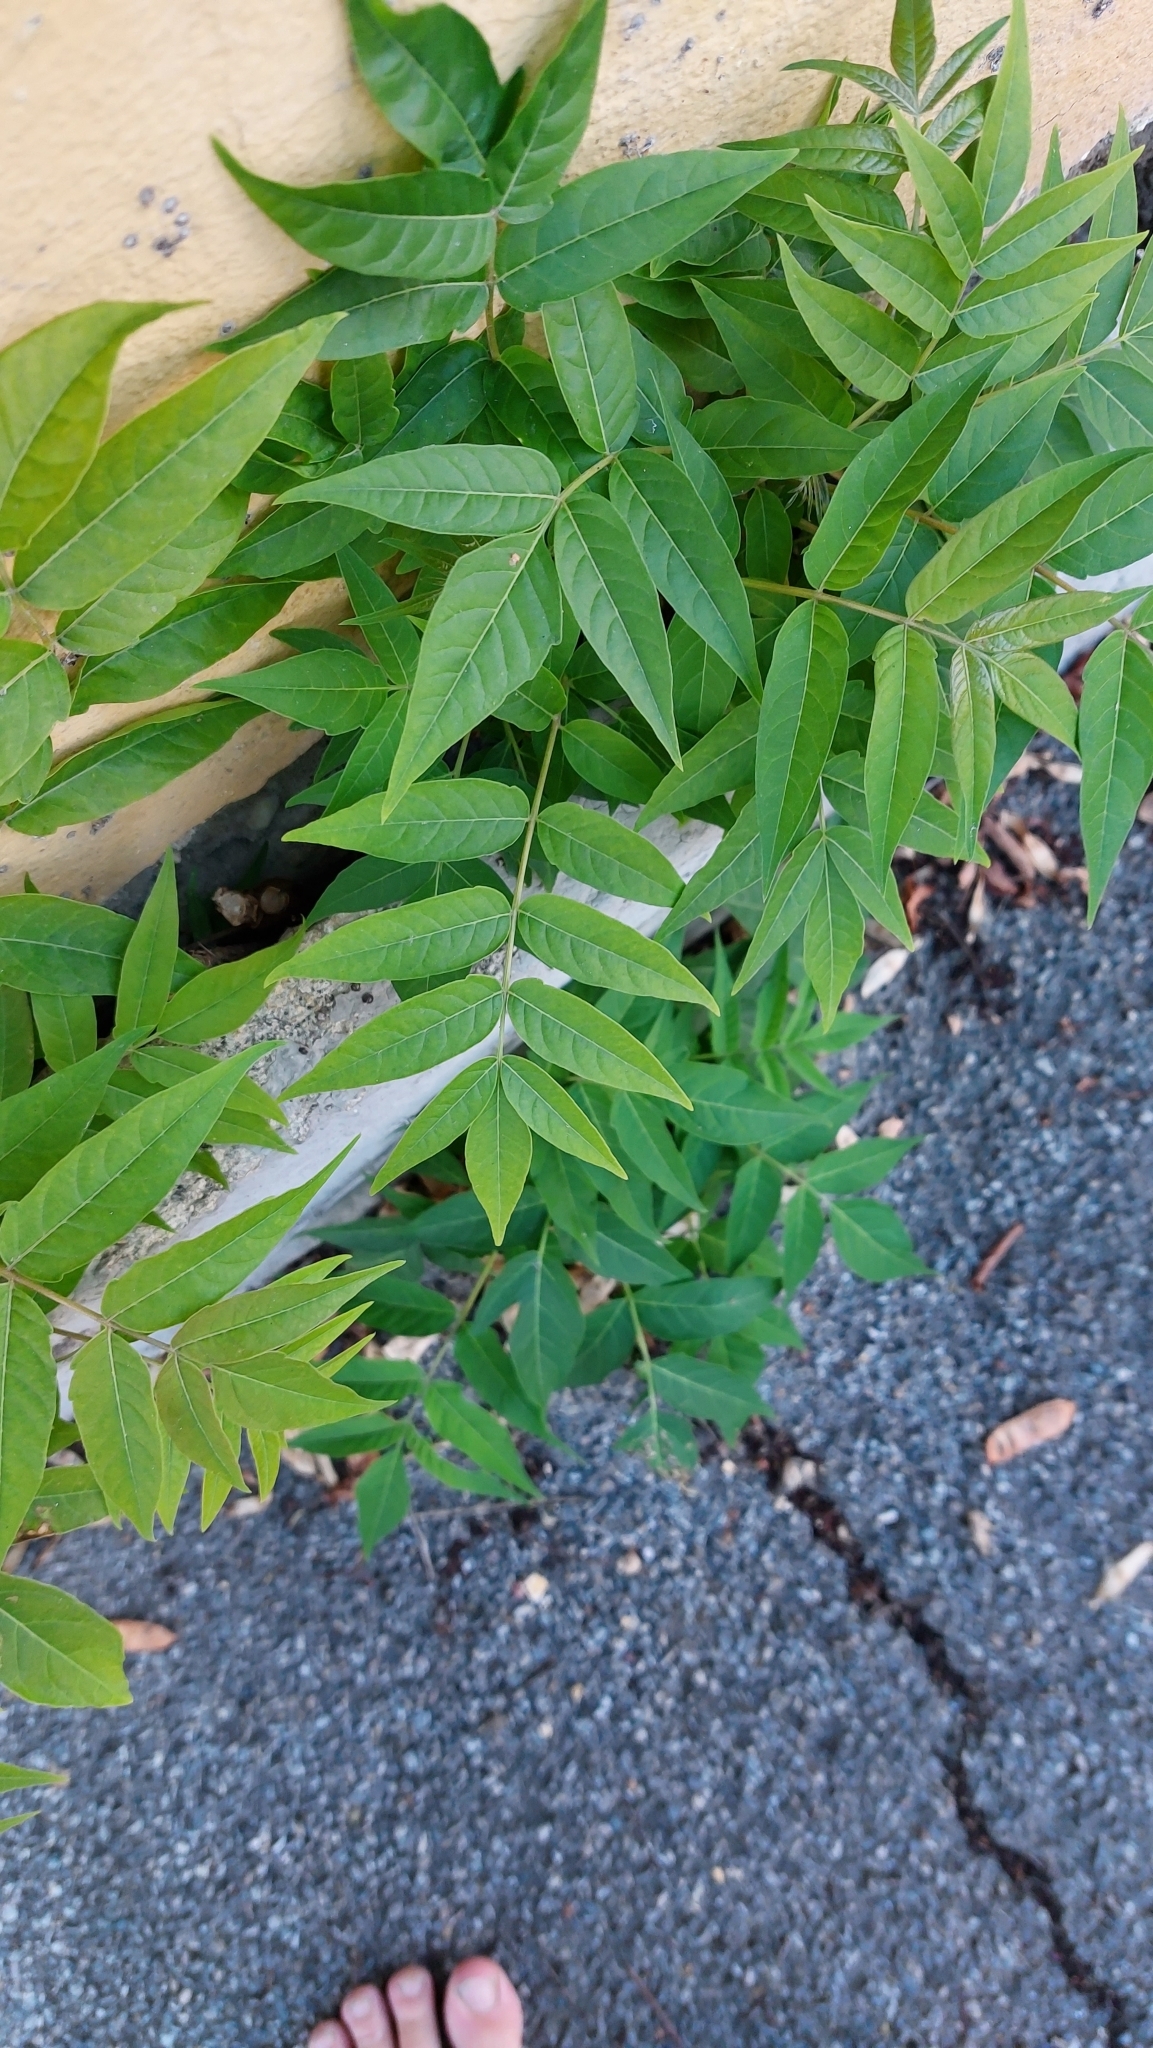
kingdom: Plantae
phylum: Tracheophyta
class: Magnoliopsida
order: Sapindales
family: Simaroubaceae
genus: Ailanthus
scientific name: Ailanthus altissima
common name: Tree-of-heaven
